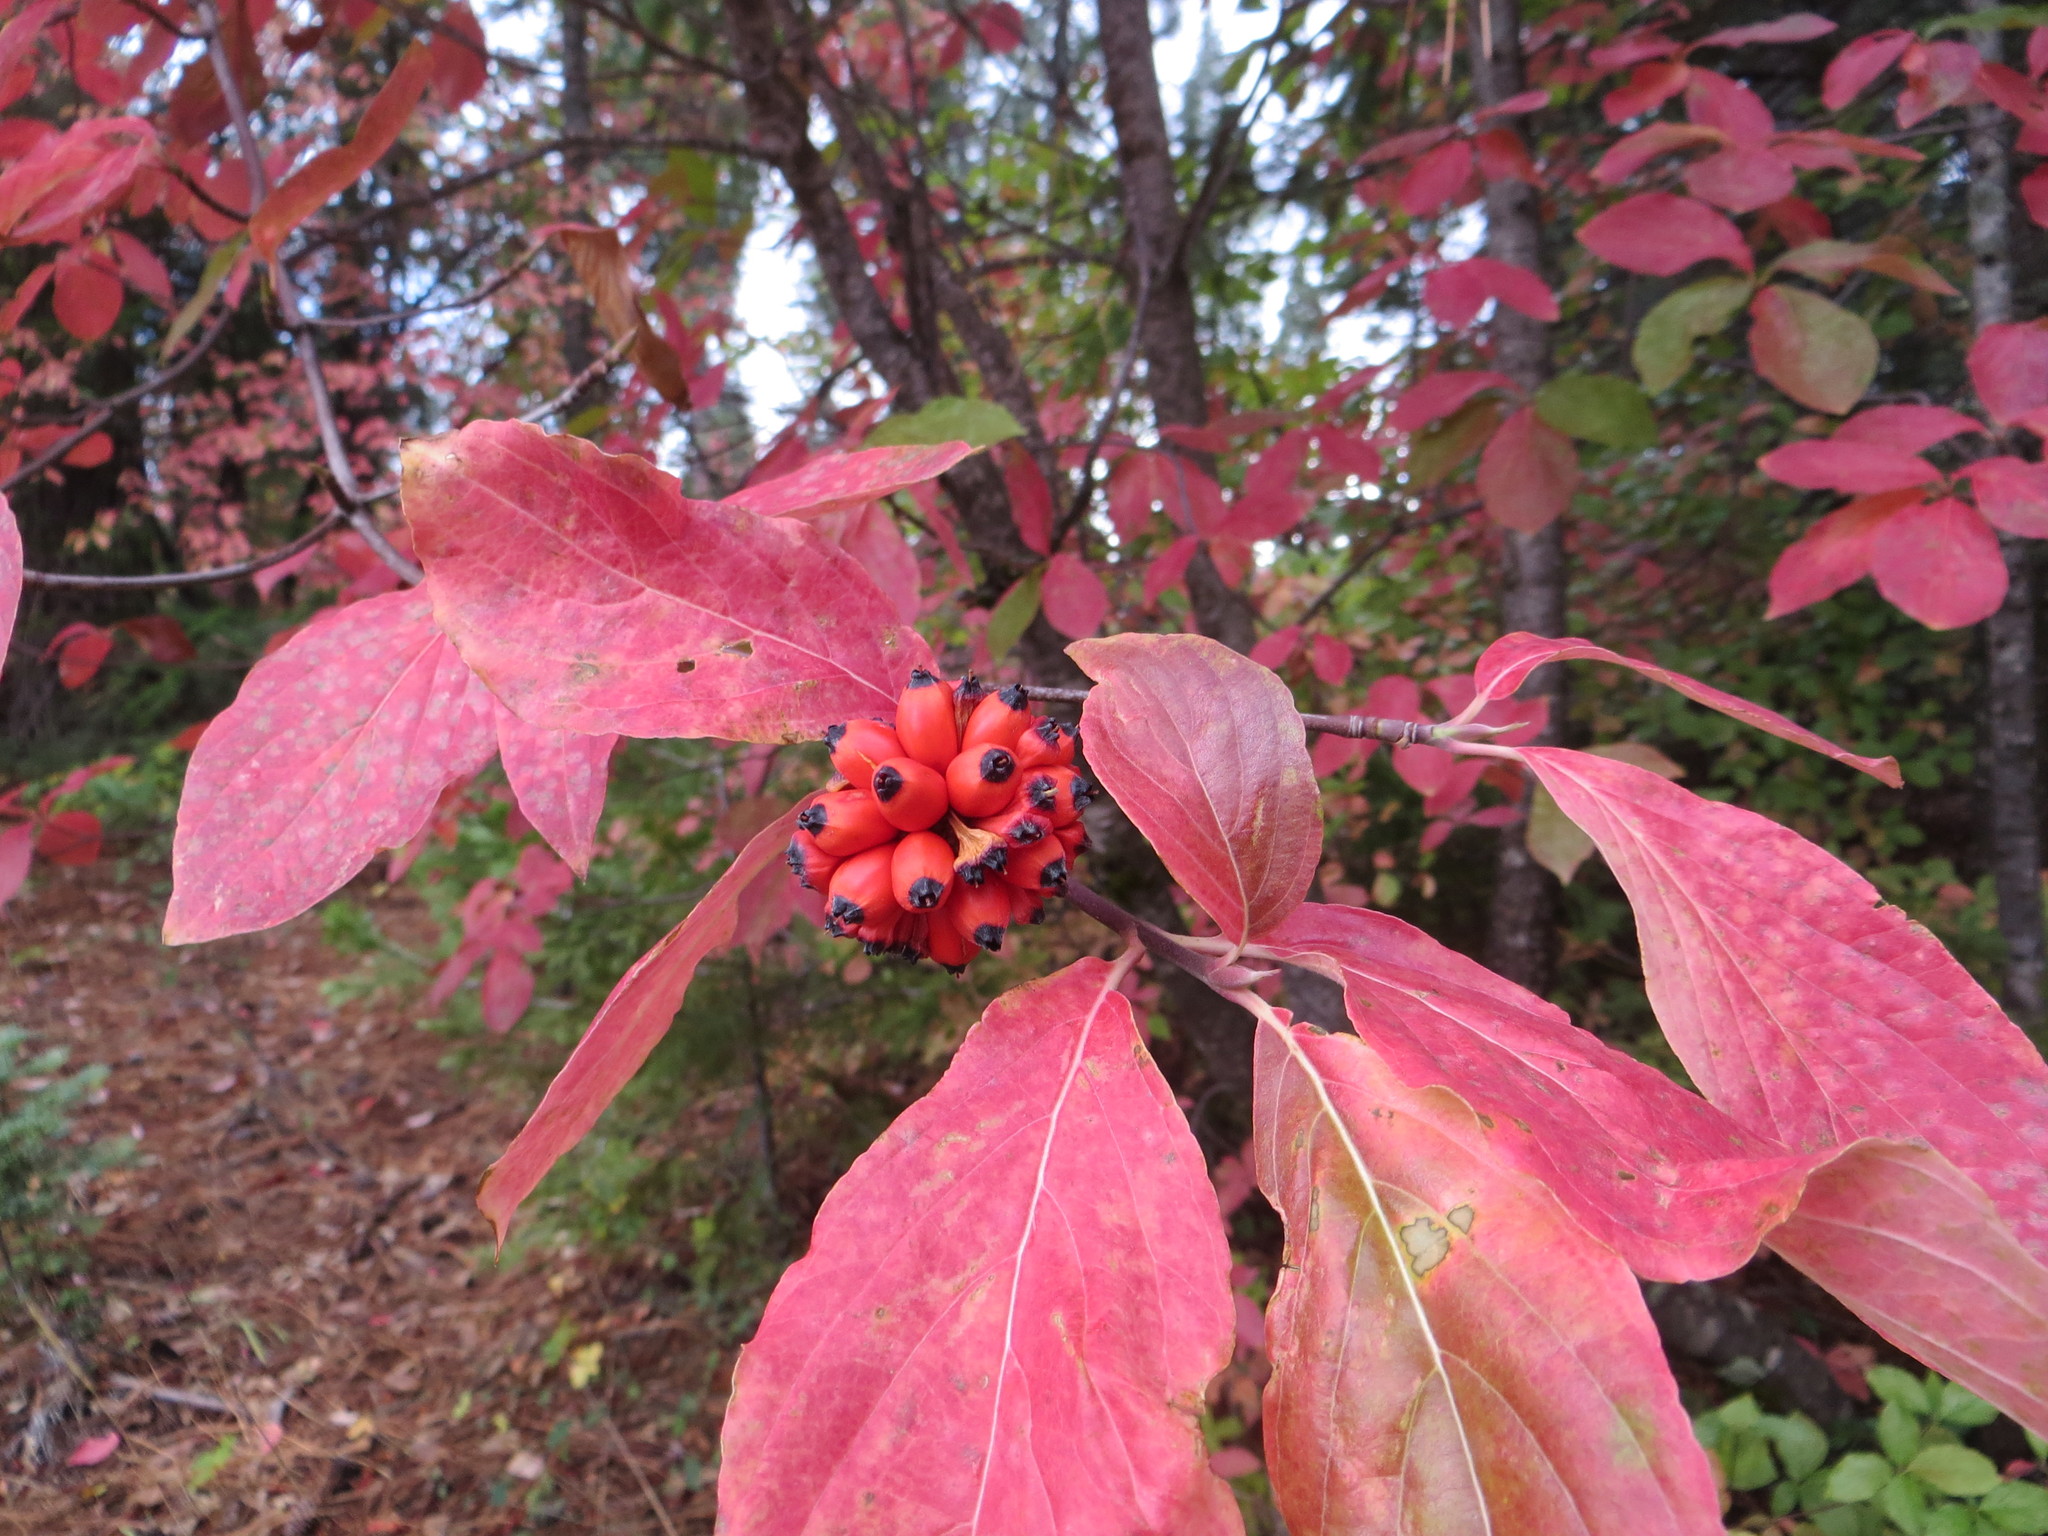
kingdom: Plantae
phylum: Tracheophyta
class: Magnoliopsida
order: Cornales
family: Cornaceae
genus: Cornus
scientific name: Cornus nuttallii
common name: Pacific dogwood
